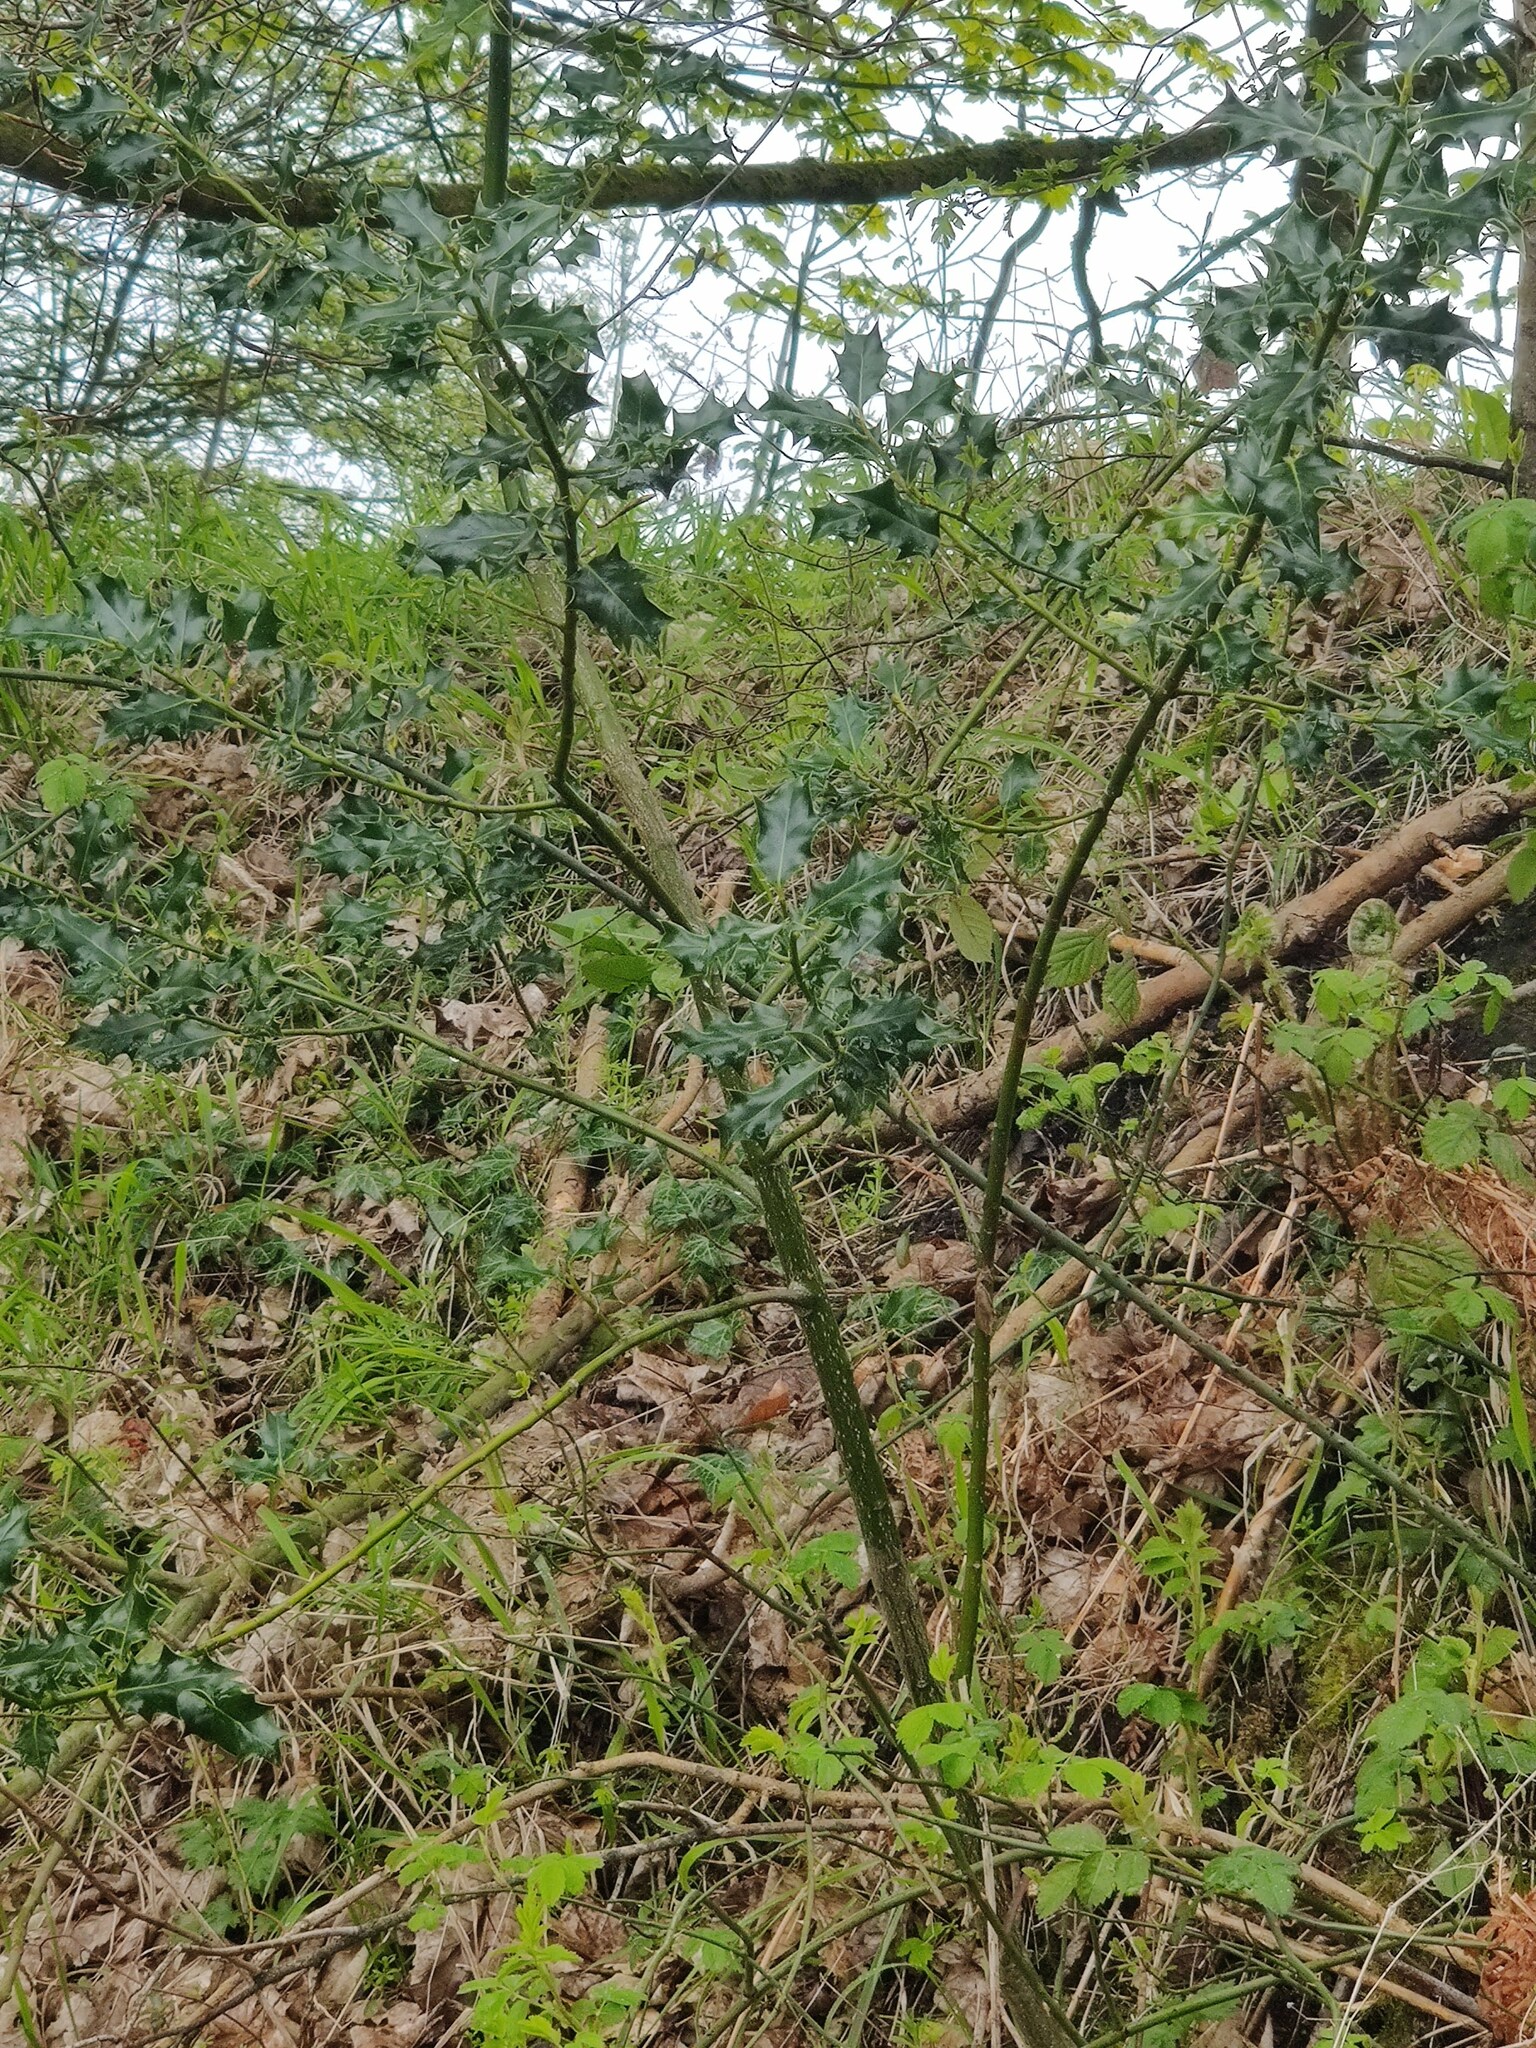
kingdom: Plantae
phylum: Tracheophyta
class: Magnoliopsida
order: Aquifoliales
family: Aquifoliaceae
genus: Ilex
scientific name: Ilex aquifolium
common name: English holly
